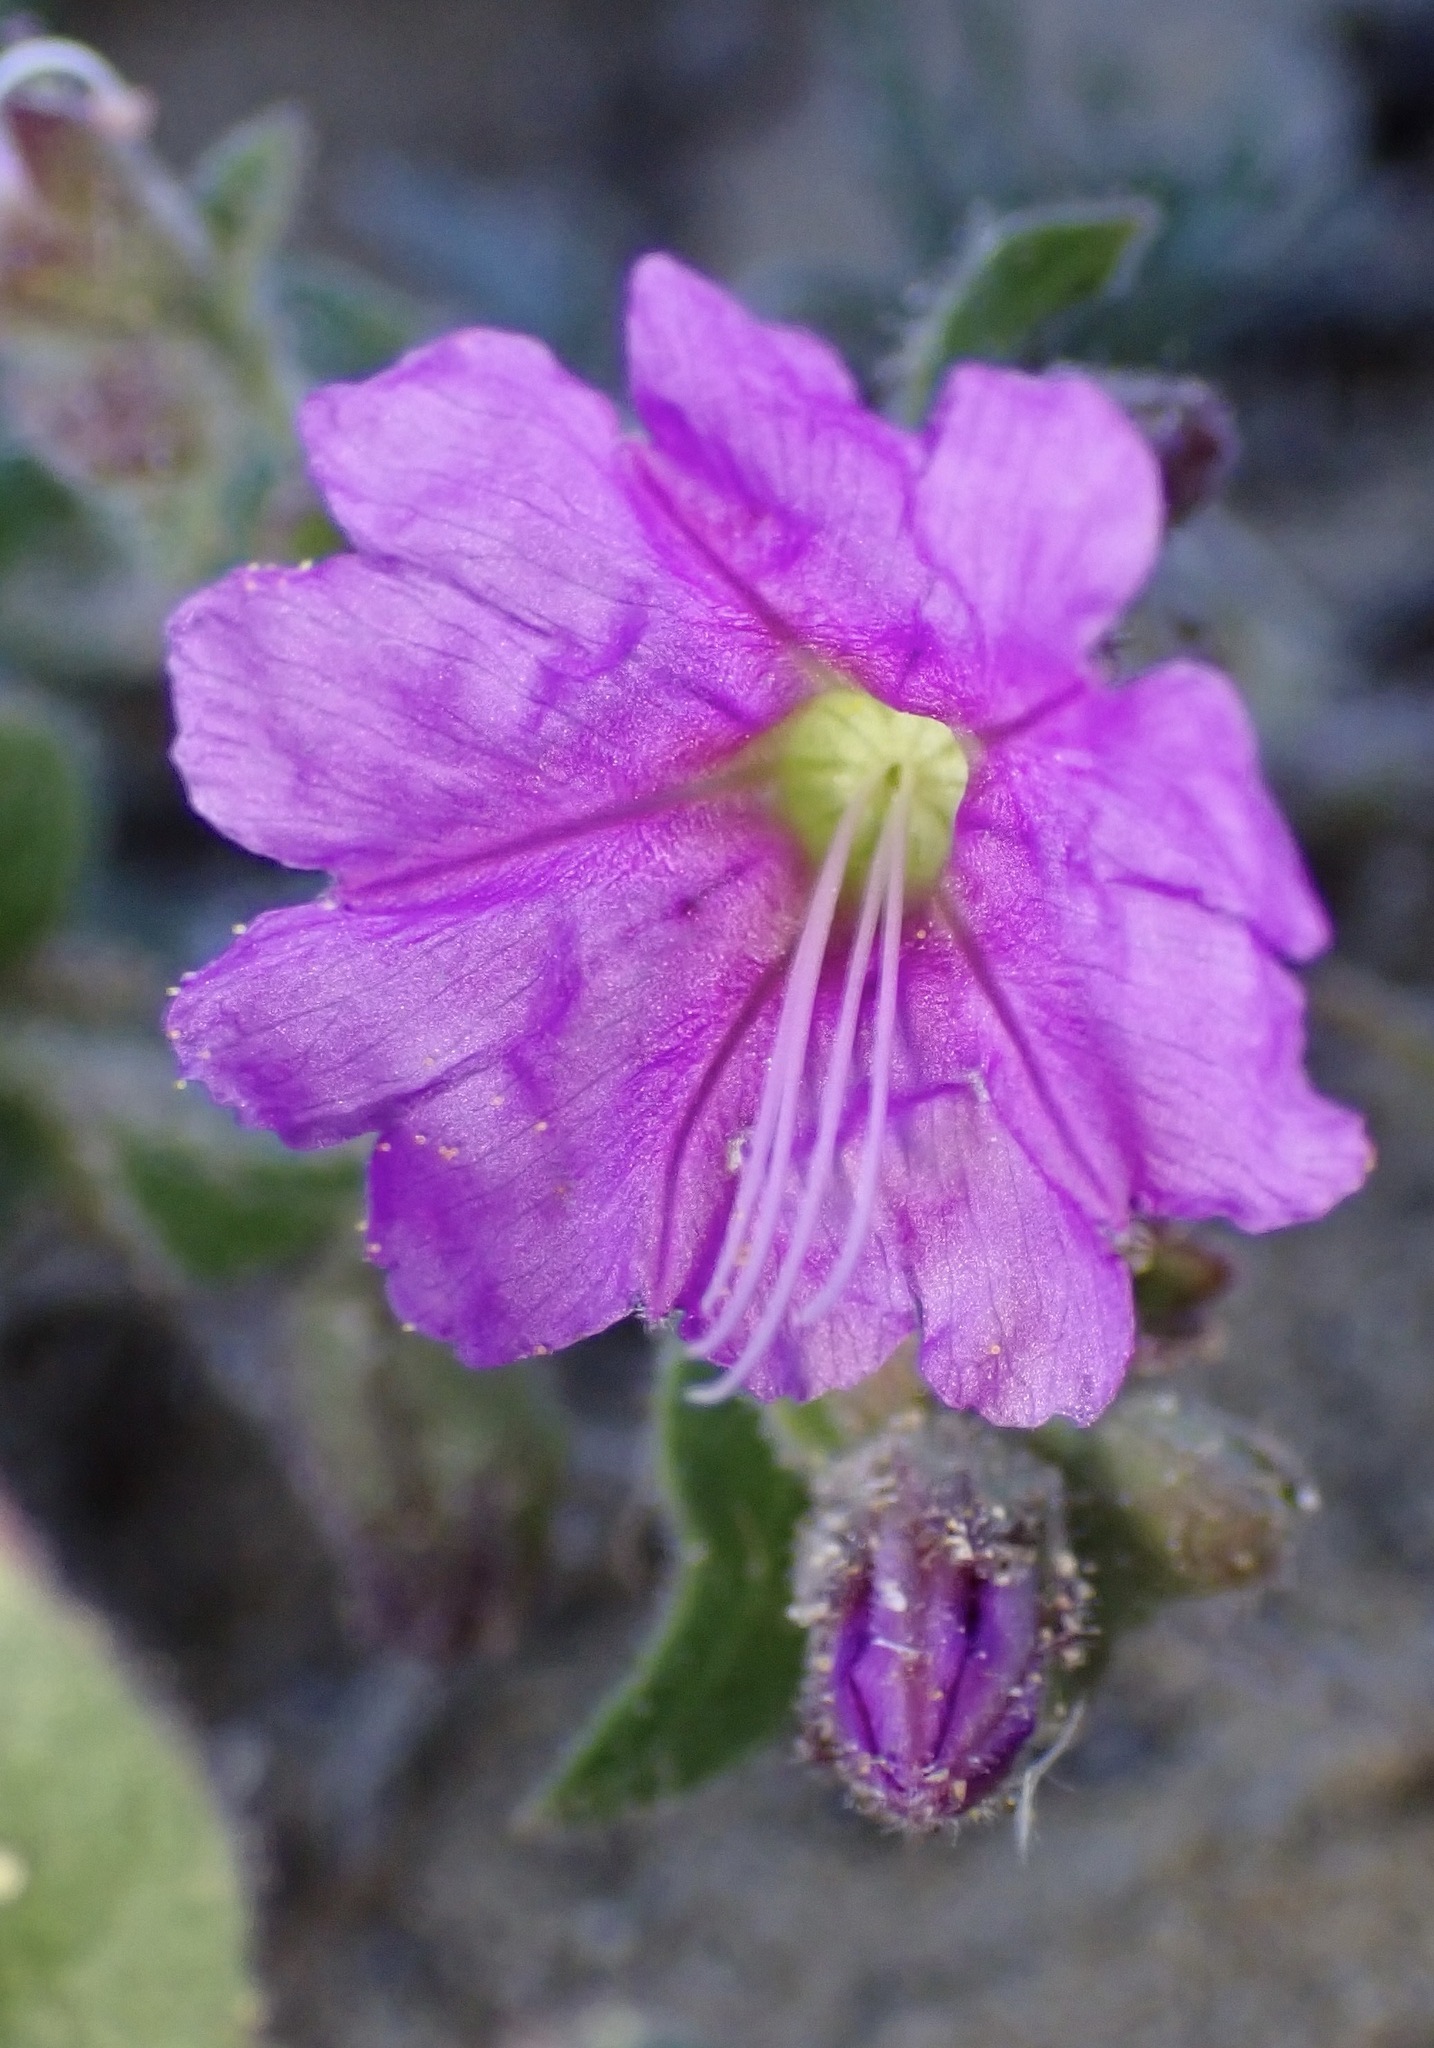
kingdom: Plantae
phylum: Tracheophyta
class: Magnoliopsida
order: Caryophyllales
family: Nyctaginaceae
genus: Mirabilis
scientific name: Mirabilis laevis
